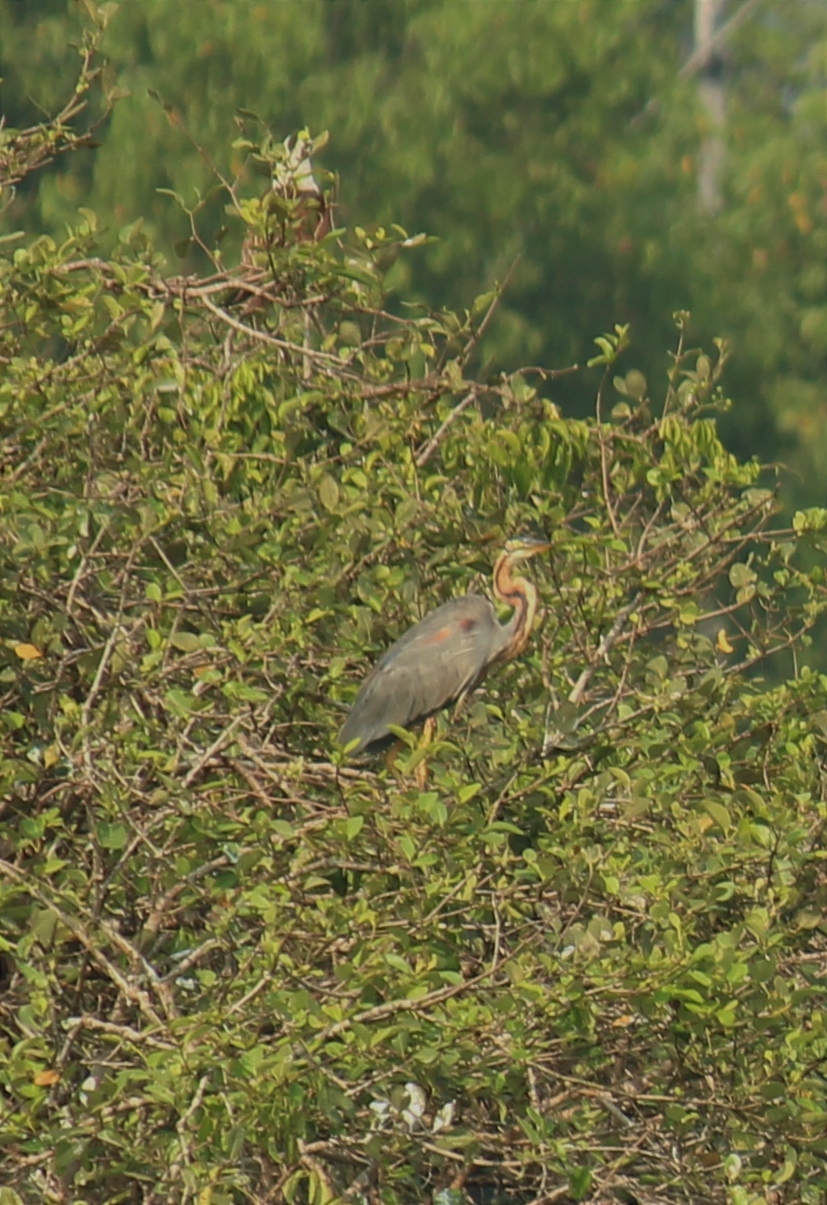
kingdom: Animalia
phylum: Chordata
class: Aves
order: Pelecaniformes
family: Ardeidae
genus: Ardea
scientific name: Ardea purpurea
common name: Purple heron
